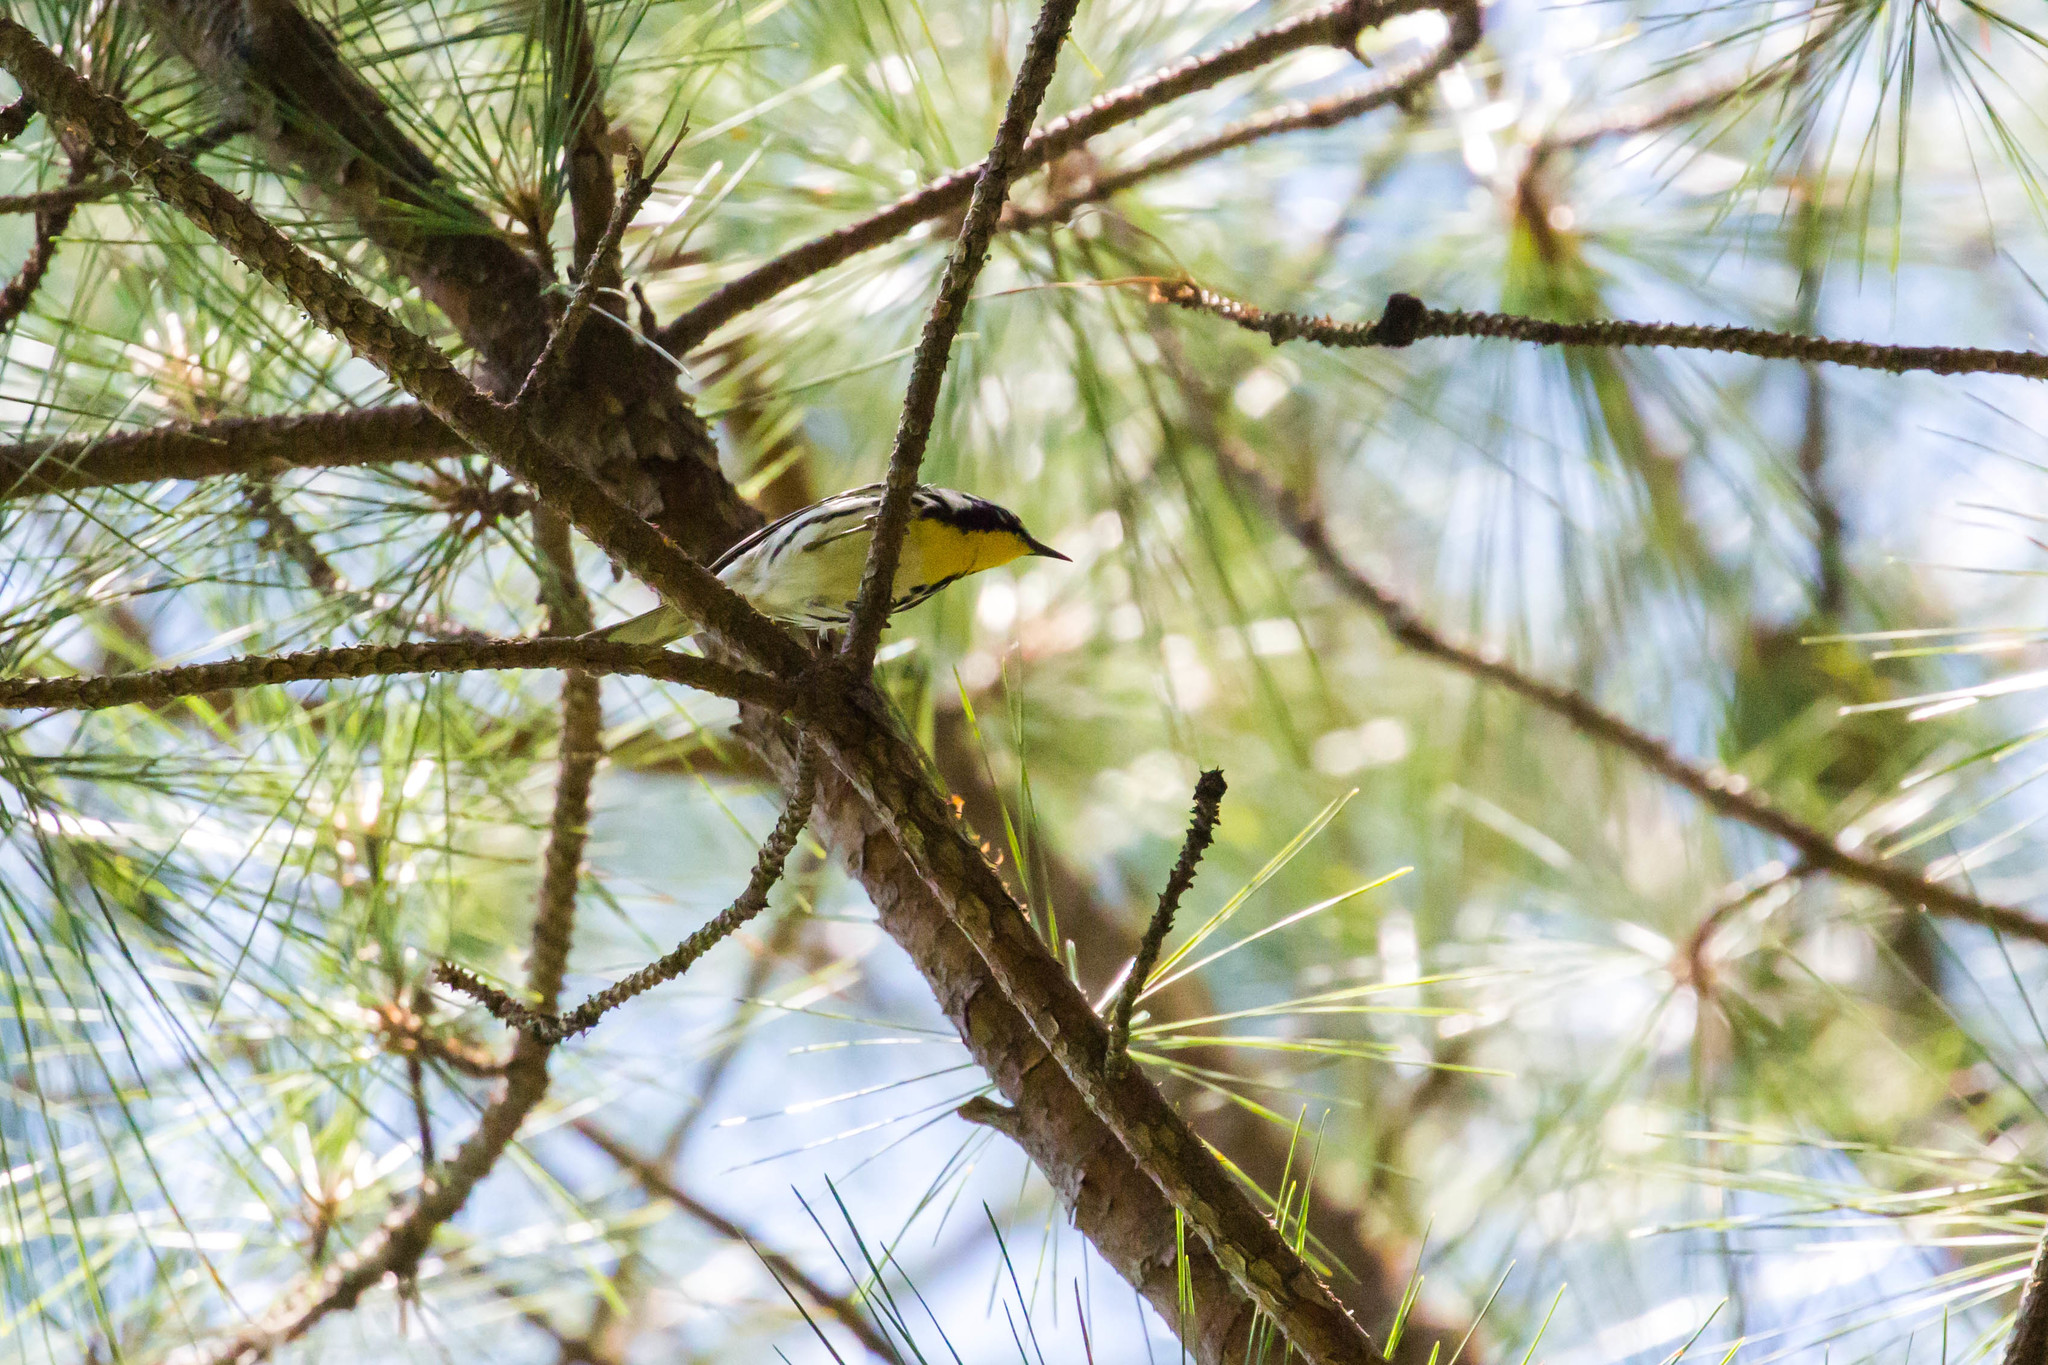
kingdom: Animalia
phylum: Chordata
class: Aves
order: Passeriformes
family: Parulidae
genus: Setophaga
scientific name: Setophaga dominica
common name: Yellow-throated warbler
